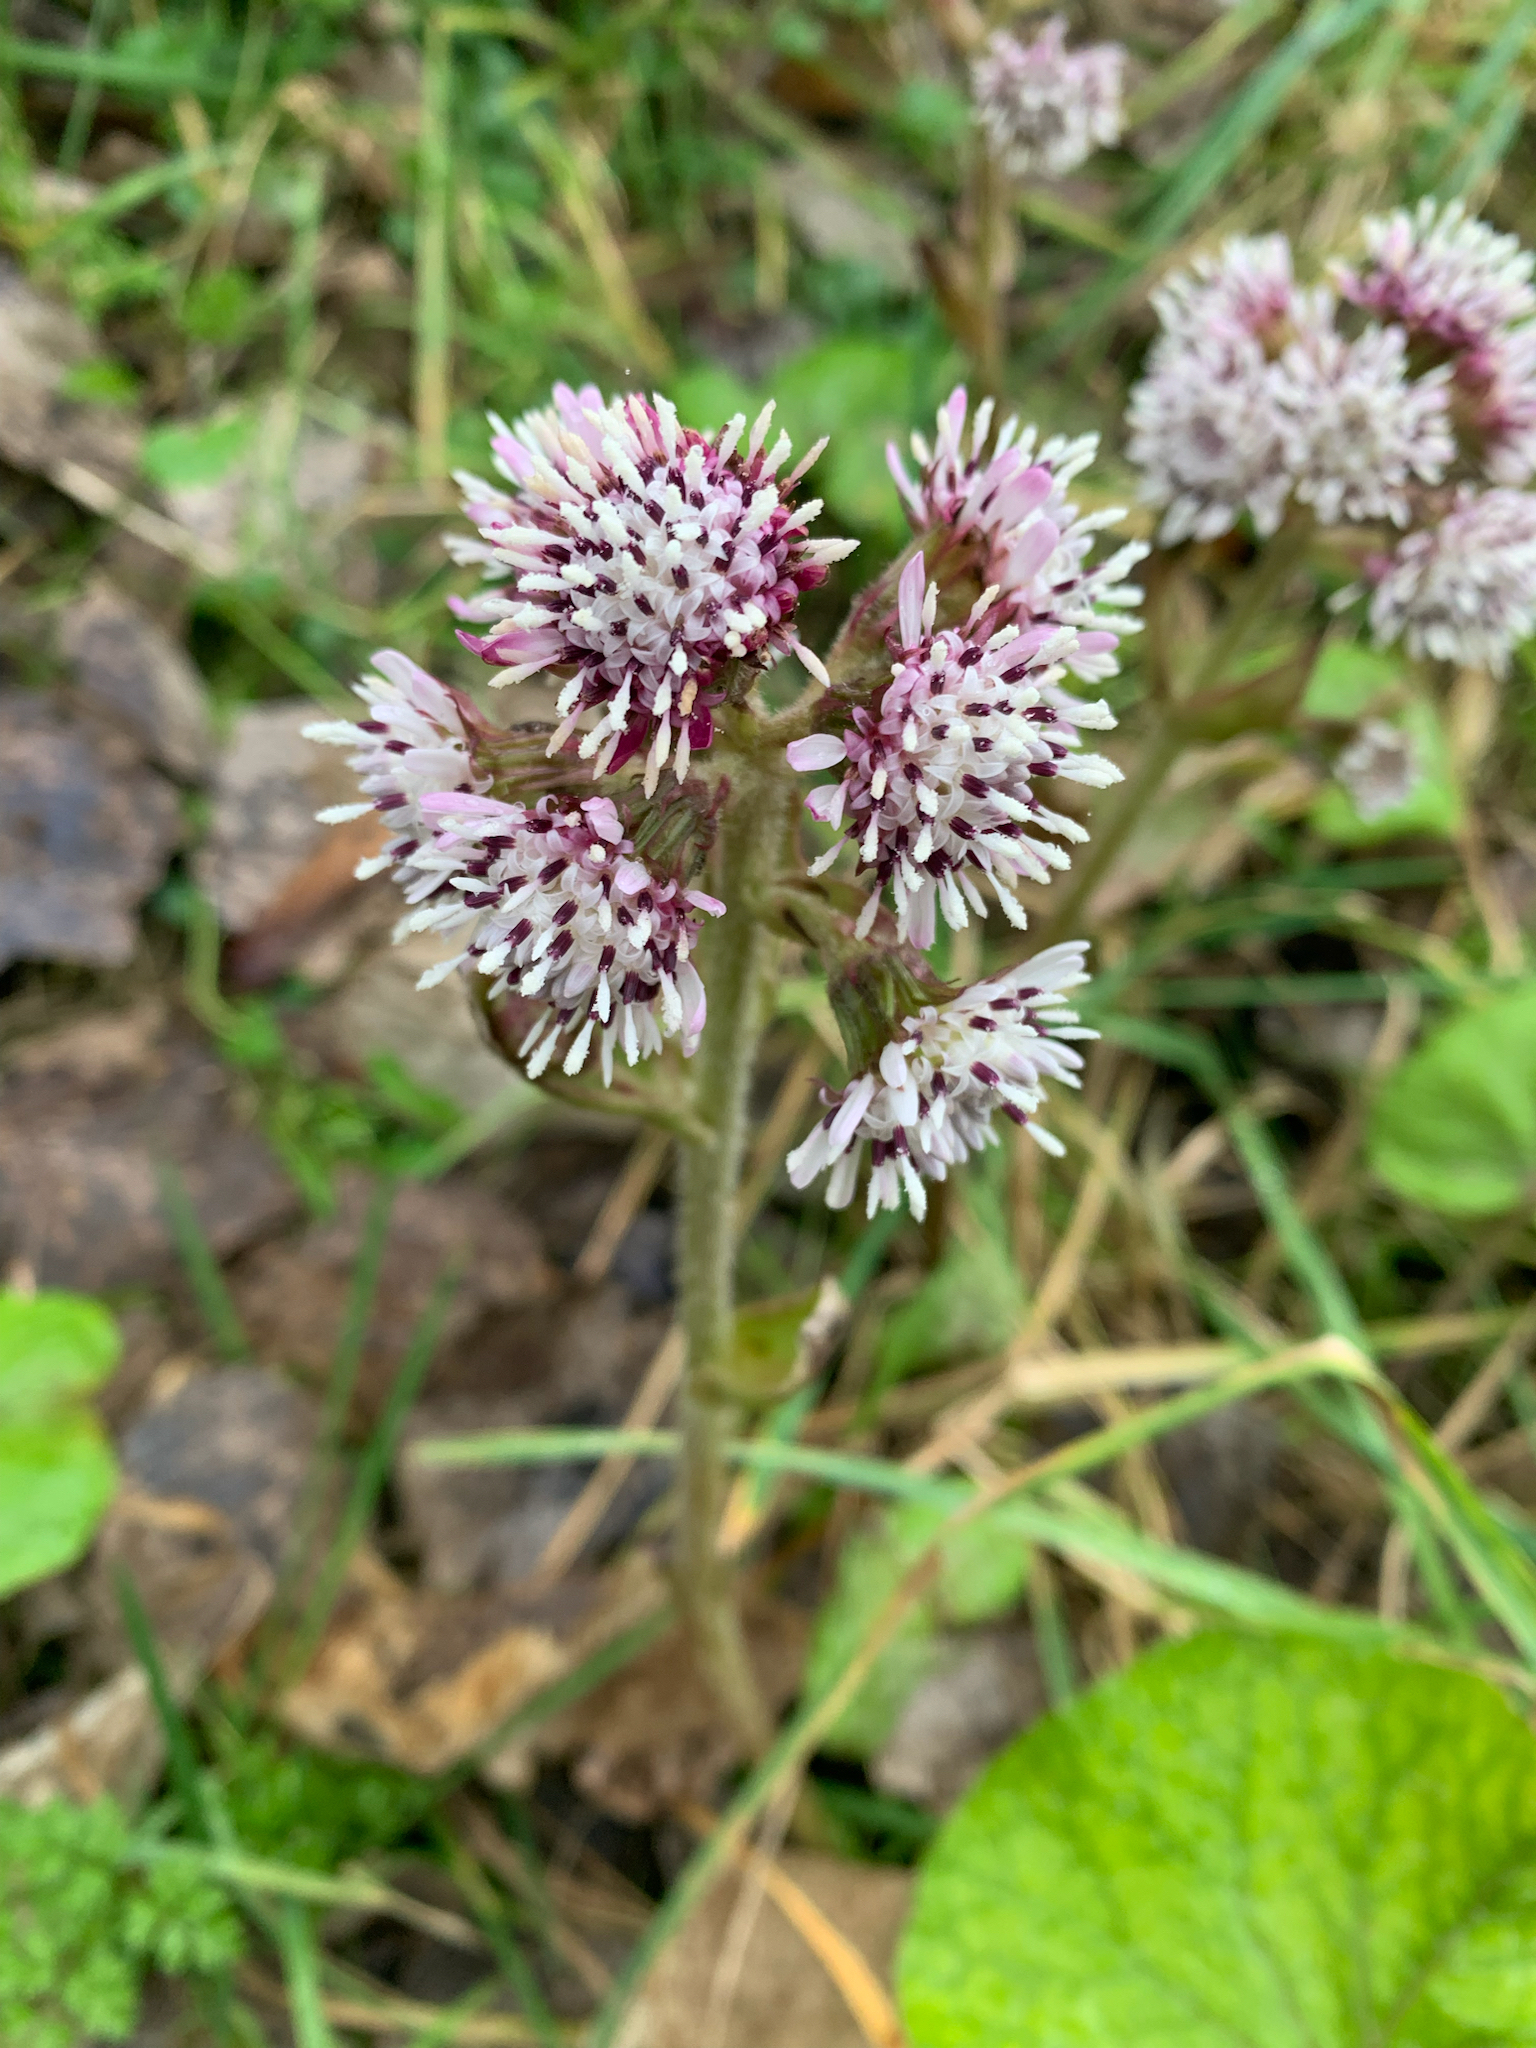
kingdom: Plantae
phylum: Tracheophyta
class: Magnoliopsida
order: Asterales
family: Asteraceae
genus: Petasites
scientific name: Petasites pyrenaicus
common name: Winter heliotrope
